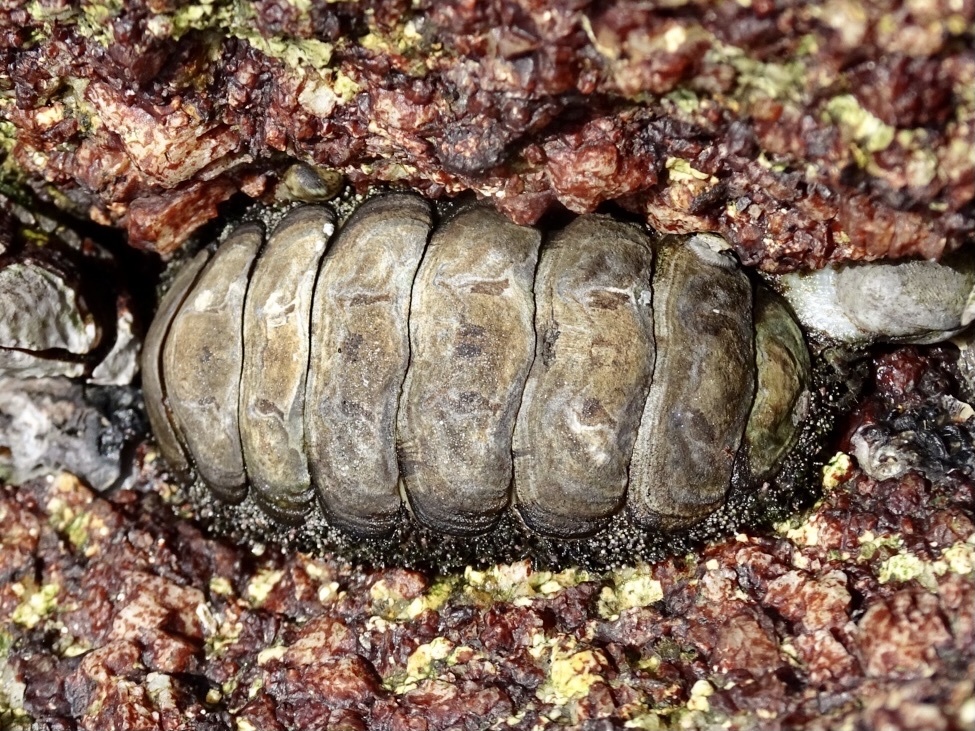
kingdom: Animalia
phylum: Mollusca
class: Polyplacophora
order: Chitonida
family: Chitonidae
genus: Liolophura
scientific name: Liolophura japonica
